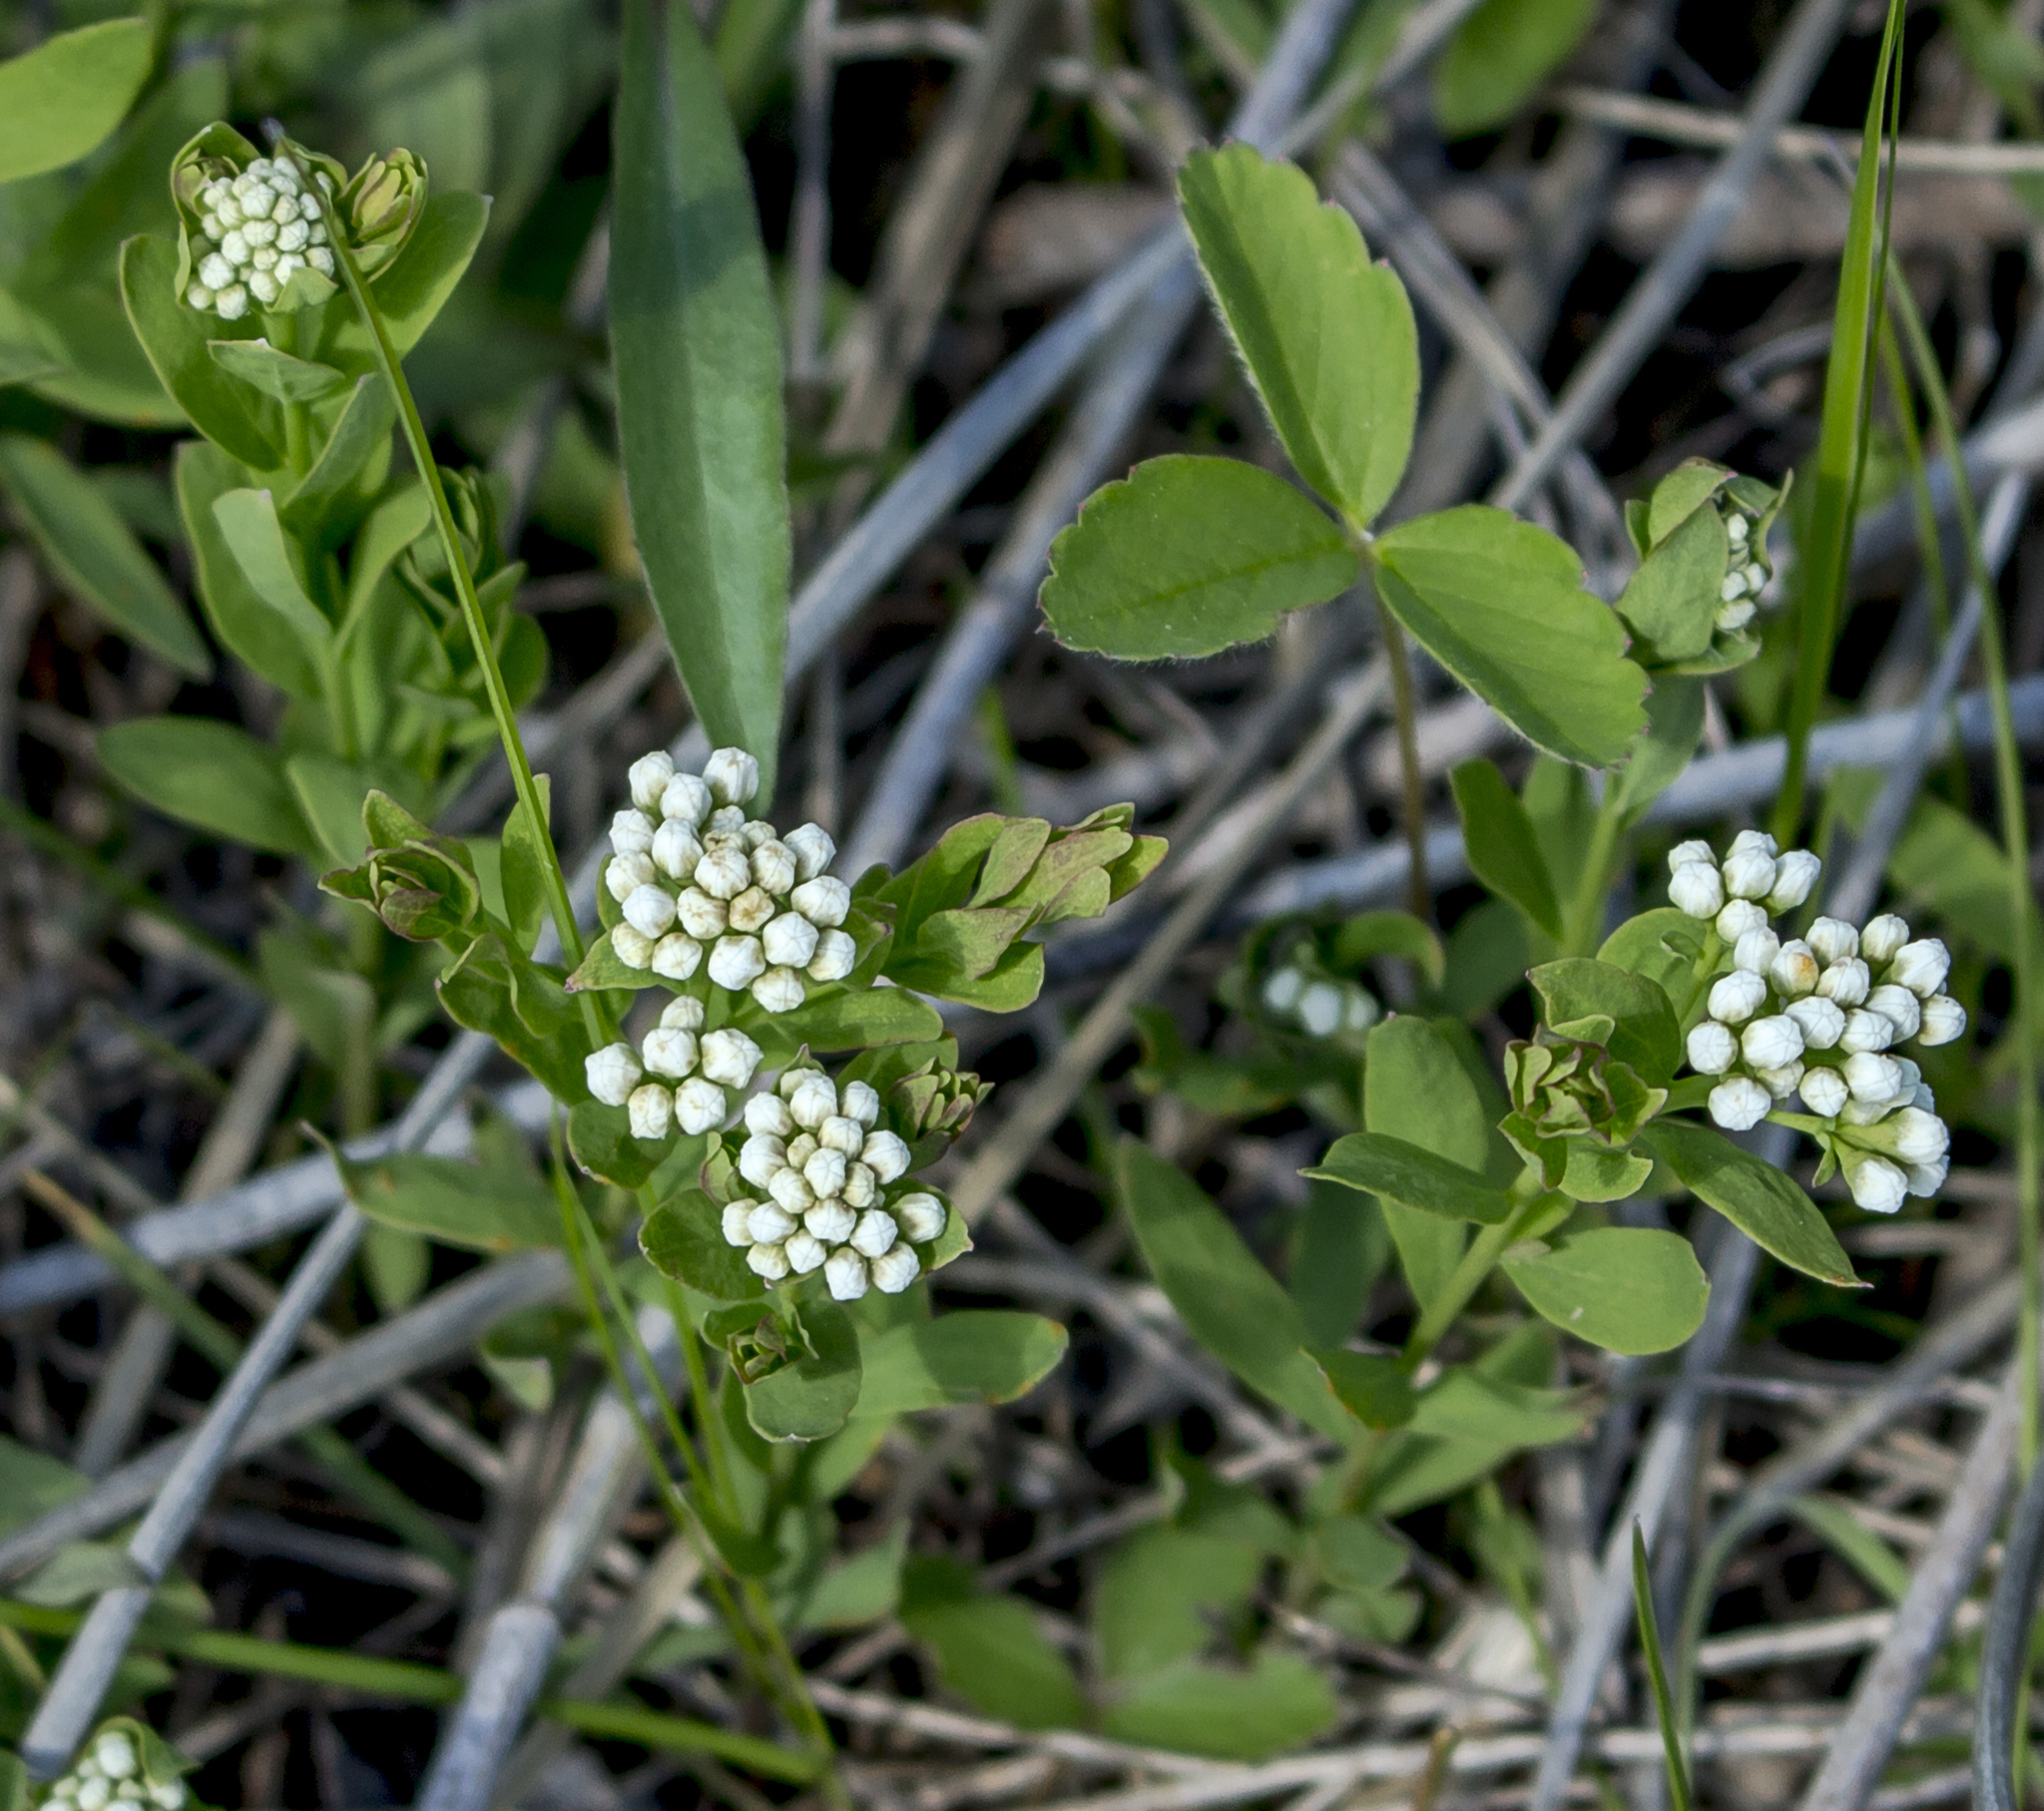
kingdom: Plantae
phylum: Tracheophyta
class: Magnoliopsida
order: Santalales
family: Comandraceae
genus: Comandra
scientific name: Comandra umbellata
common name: Bastard toadflax
